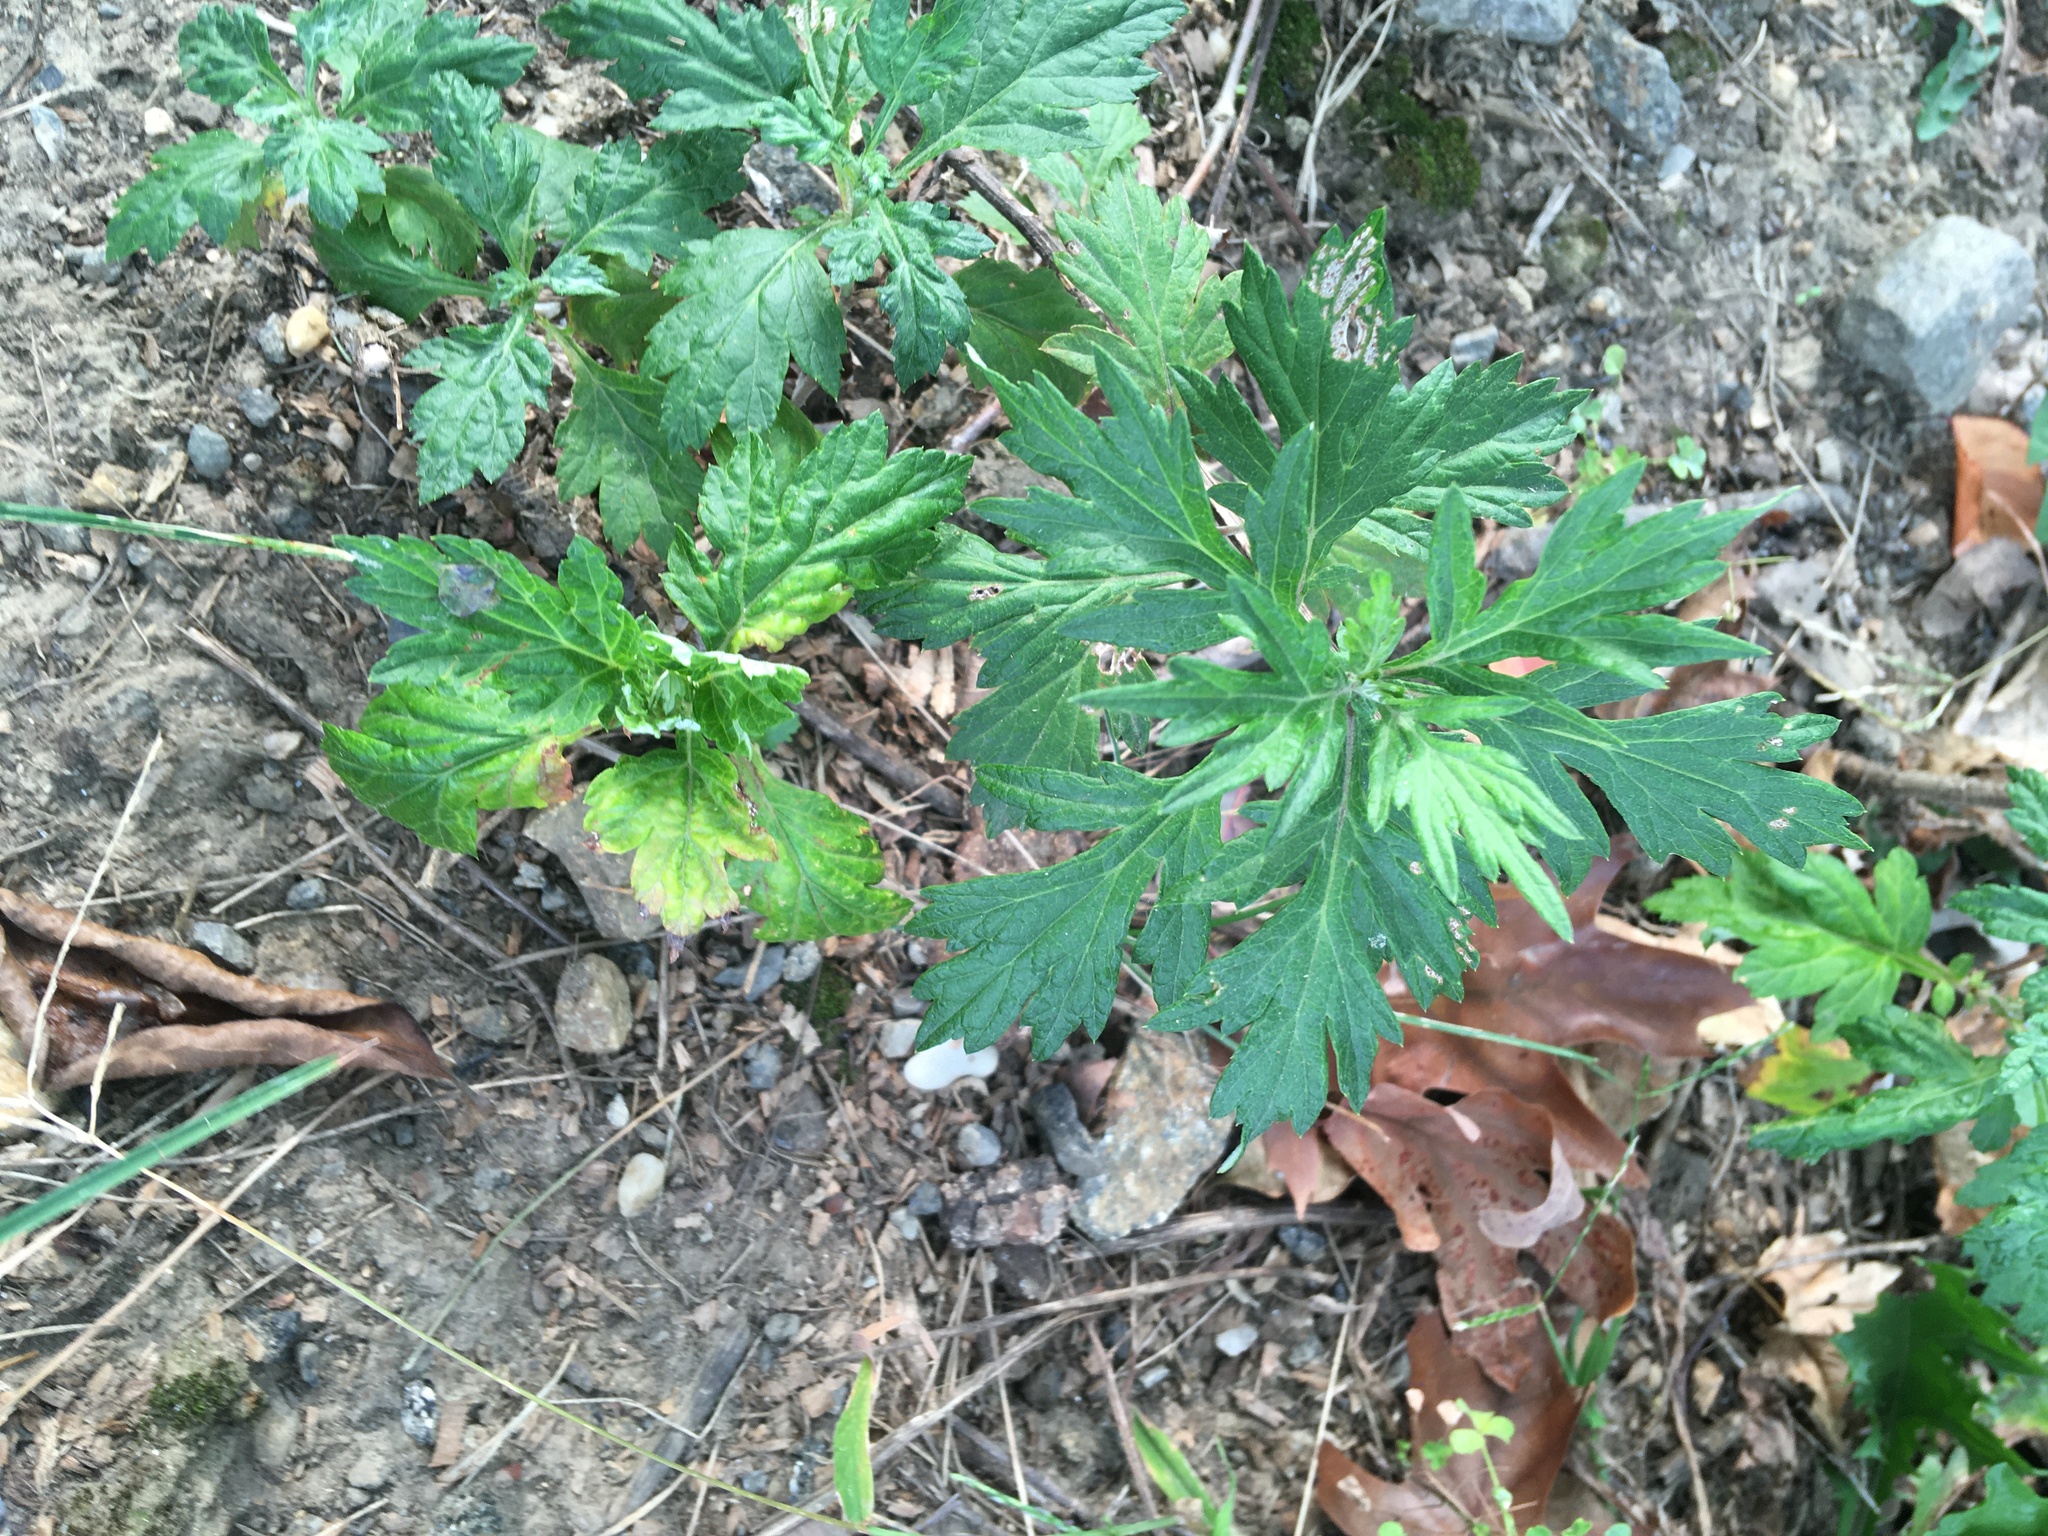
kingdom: Plantae
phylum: Tracheophyta
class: Magnoliopsida
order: Asterales
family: Asteraceae
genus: Artemisia
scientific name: Artemisia vulgaris
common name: Mugwort
